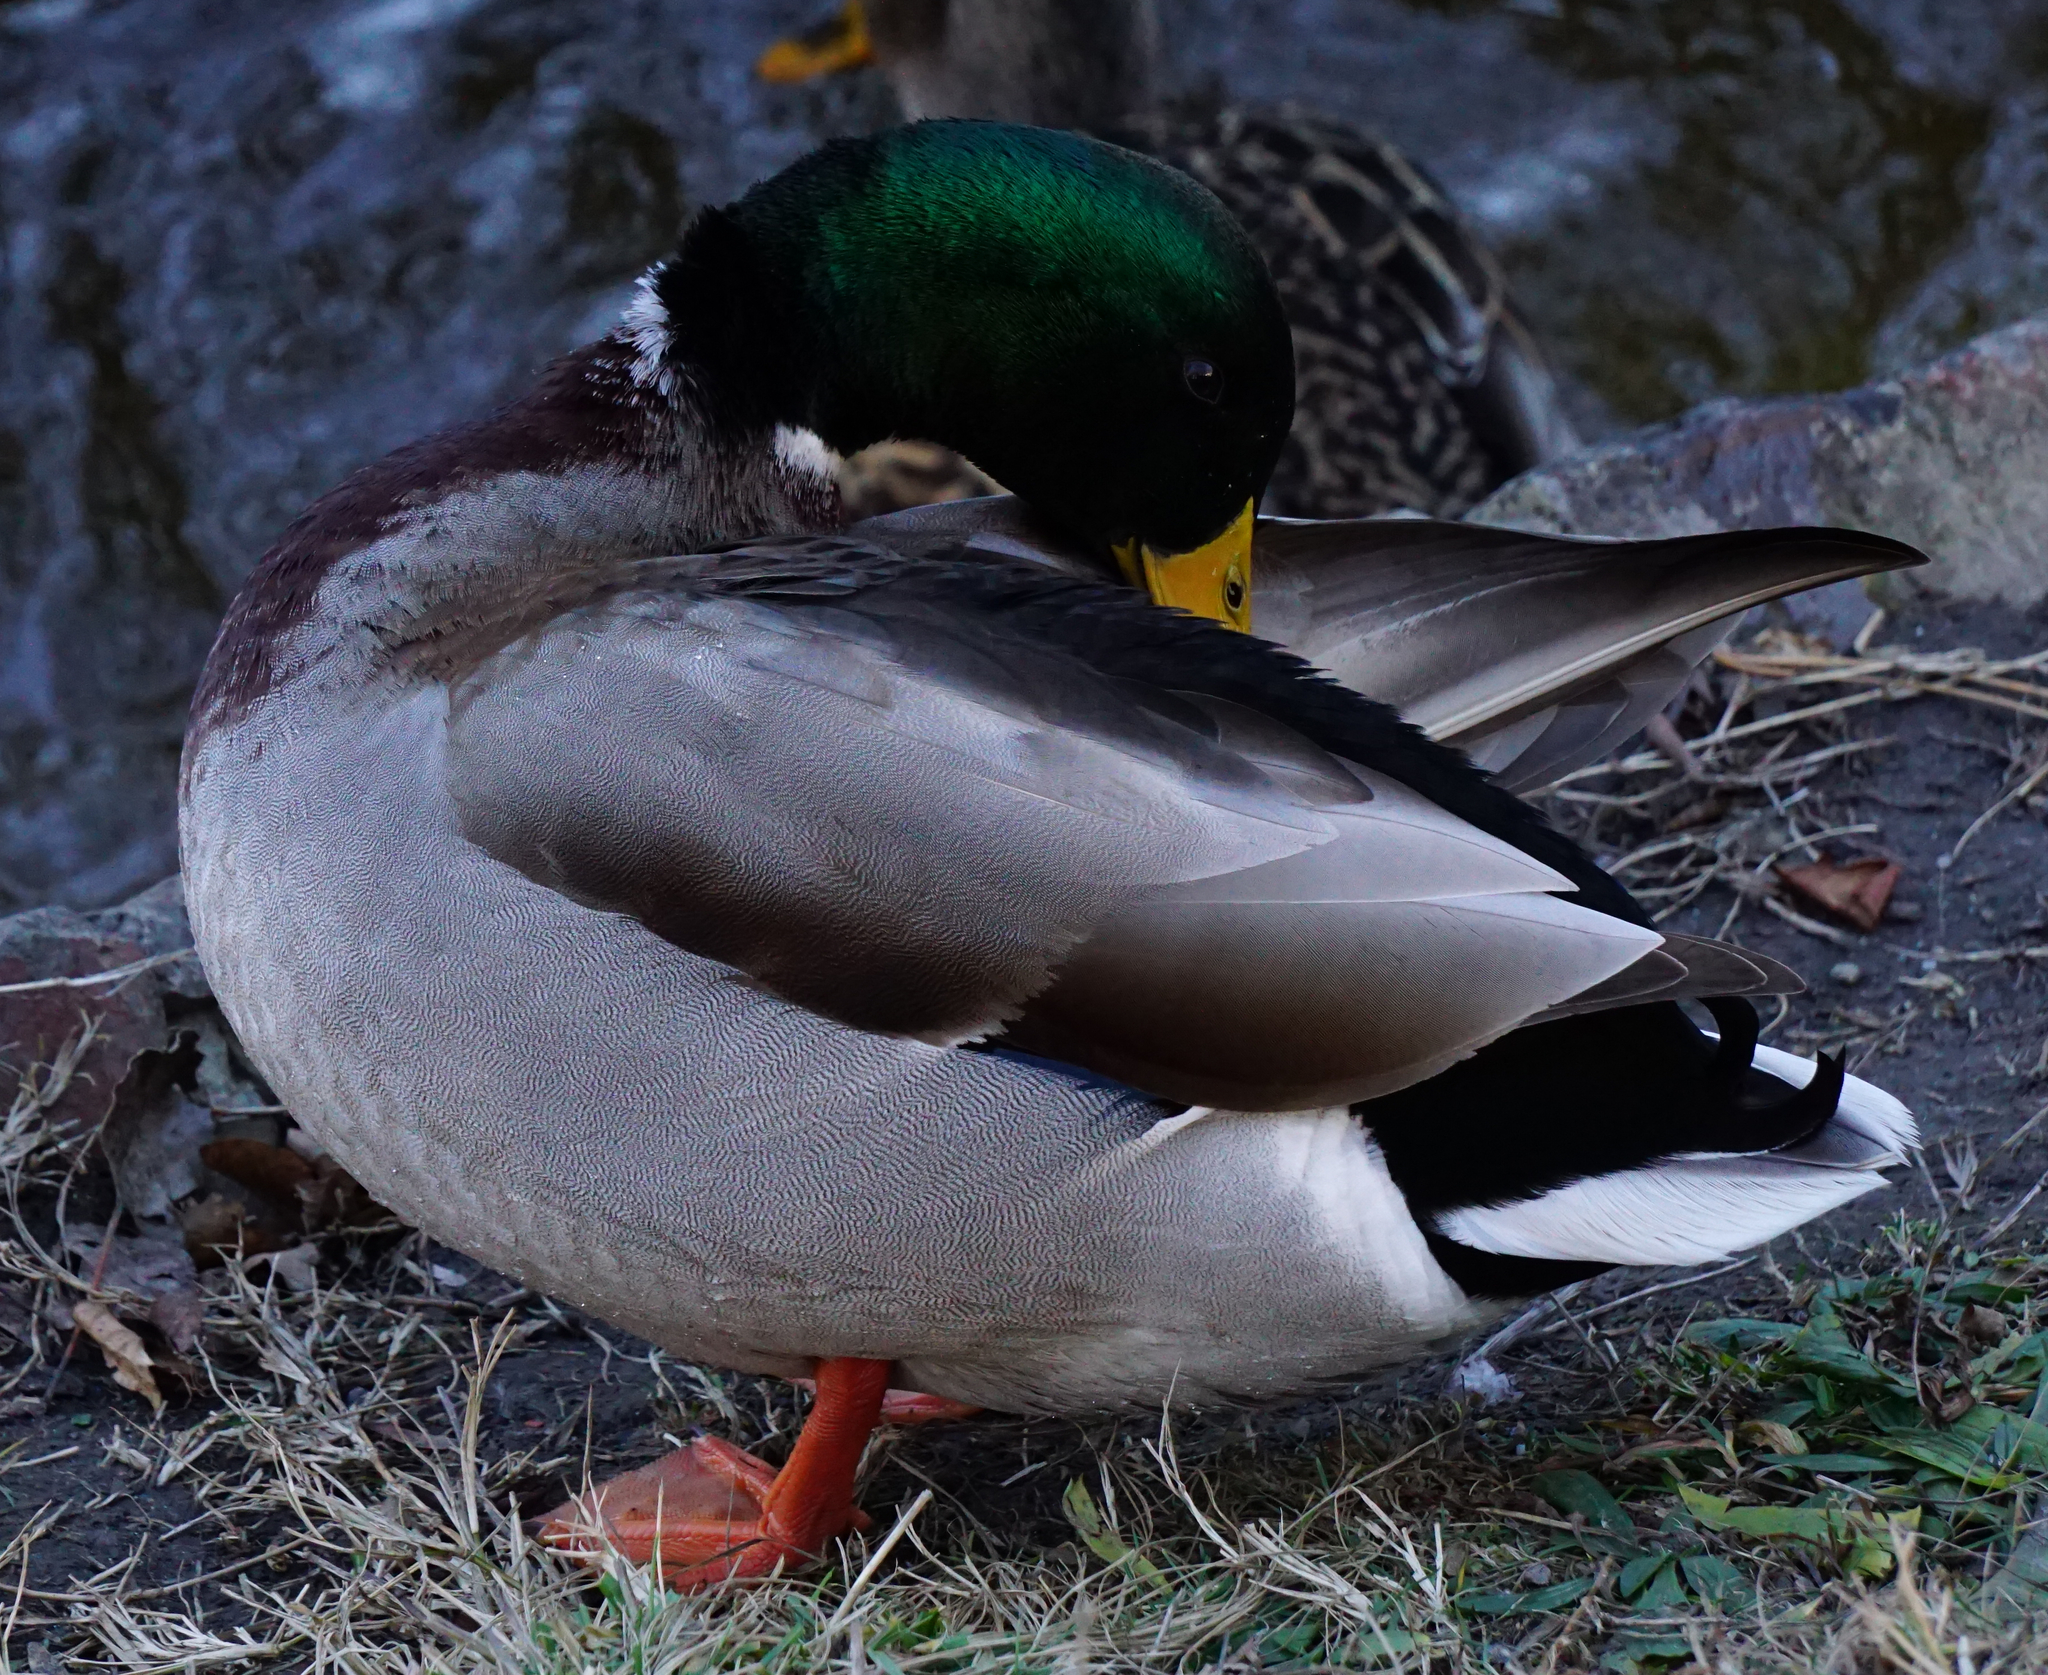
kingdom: Animalia
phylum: Chordata
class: Aves
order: Anseriformes
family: Anatidae
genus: Anas
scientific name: Anas platyrhynchos
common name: Mallard
